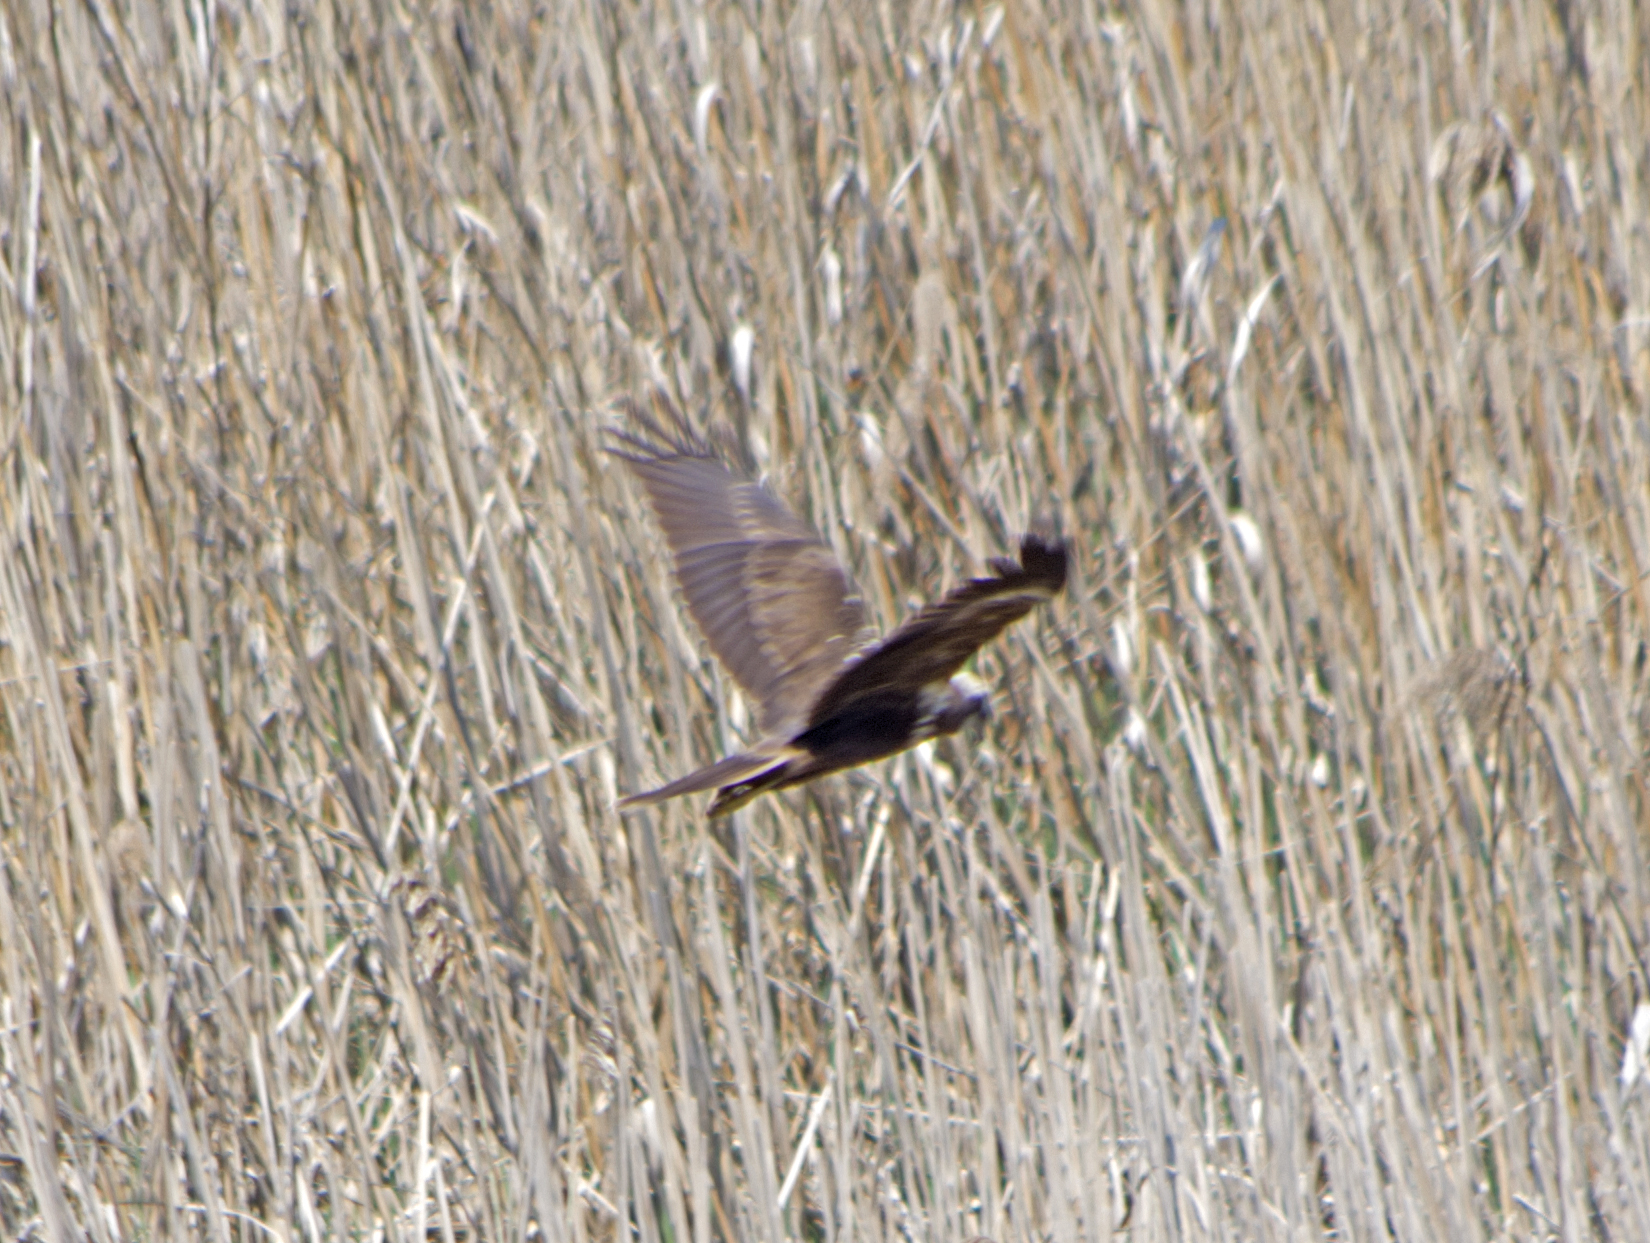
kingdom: Animalia
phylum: Chordata
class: Aves
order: Accipitriformes
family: Accipitridae
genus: Circus
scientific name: Circus aeruginosus
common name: Western marsh harrier
